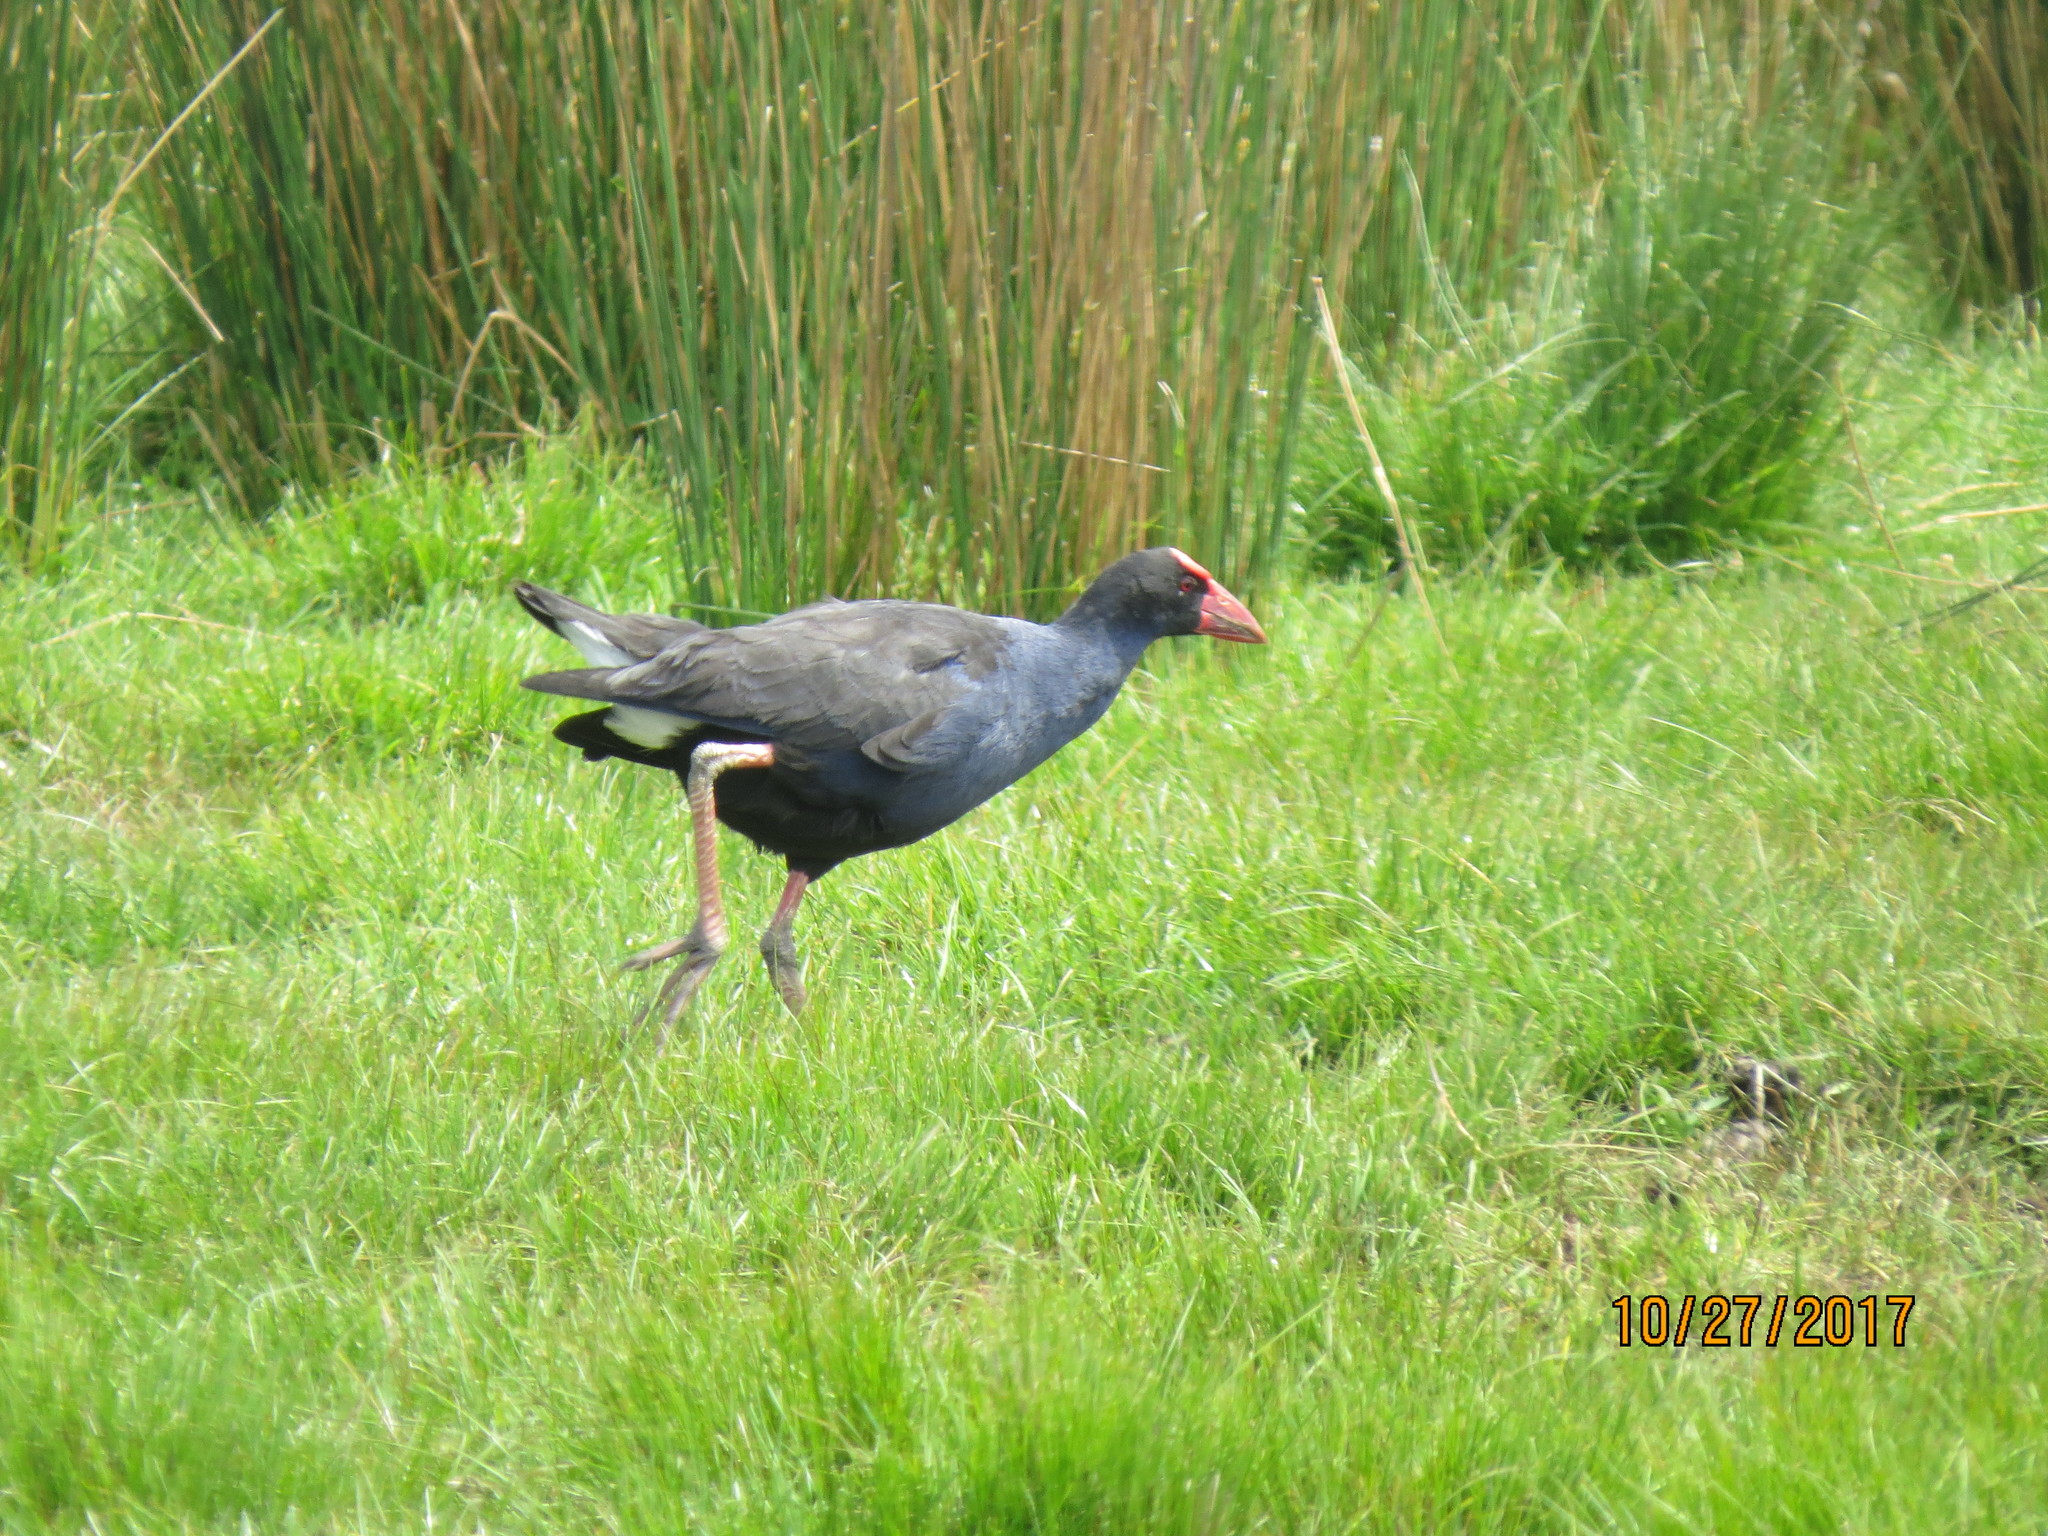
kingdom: Animalia
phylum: Chordata
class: Aves
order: Gruiformes
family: Rallidae
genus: Porphyrio
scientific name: Porphyrio melanotus
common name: Australasian swamphen
